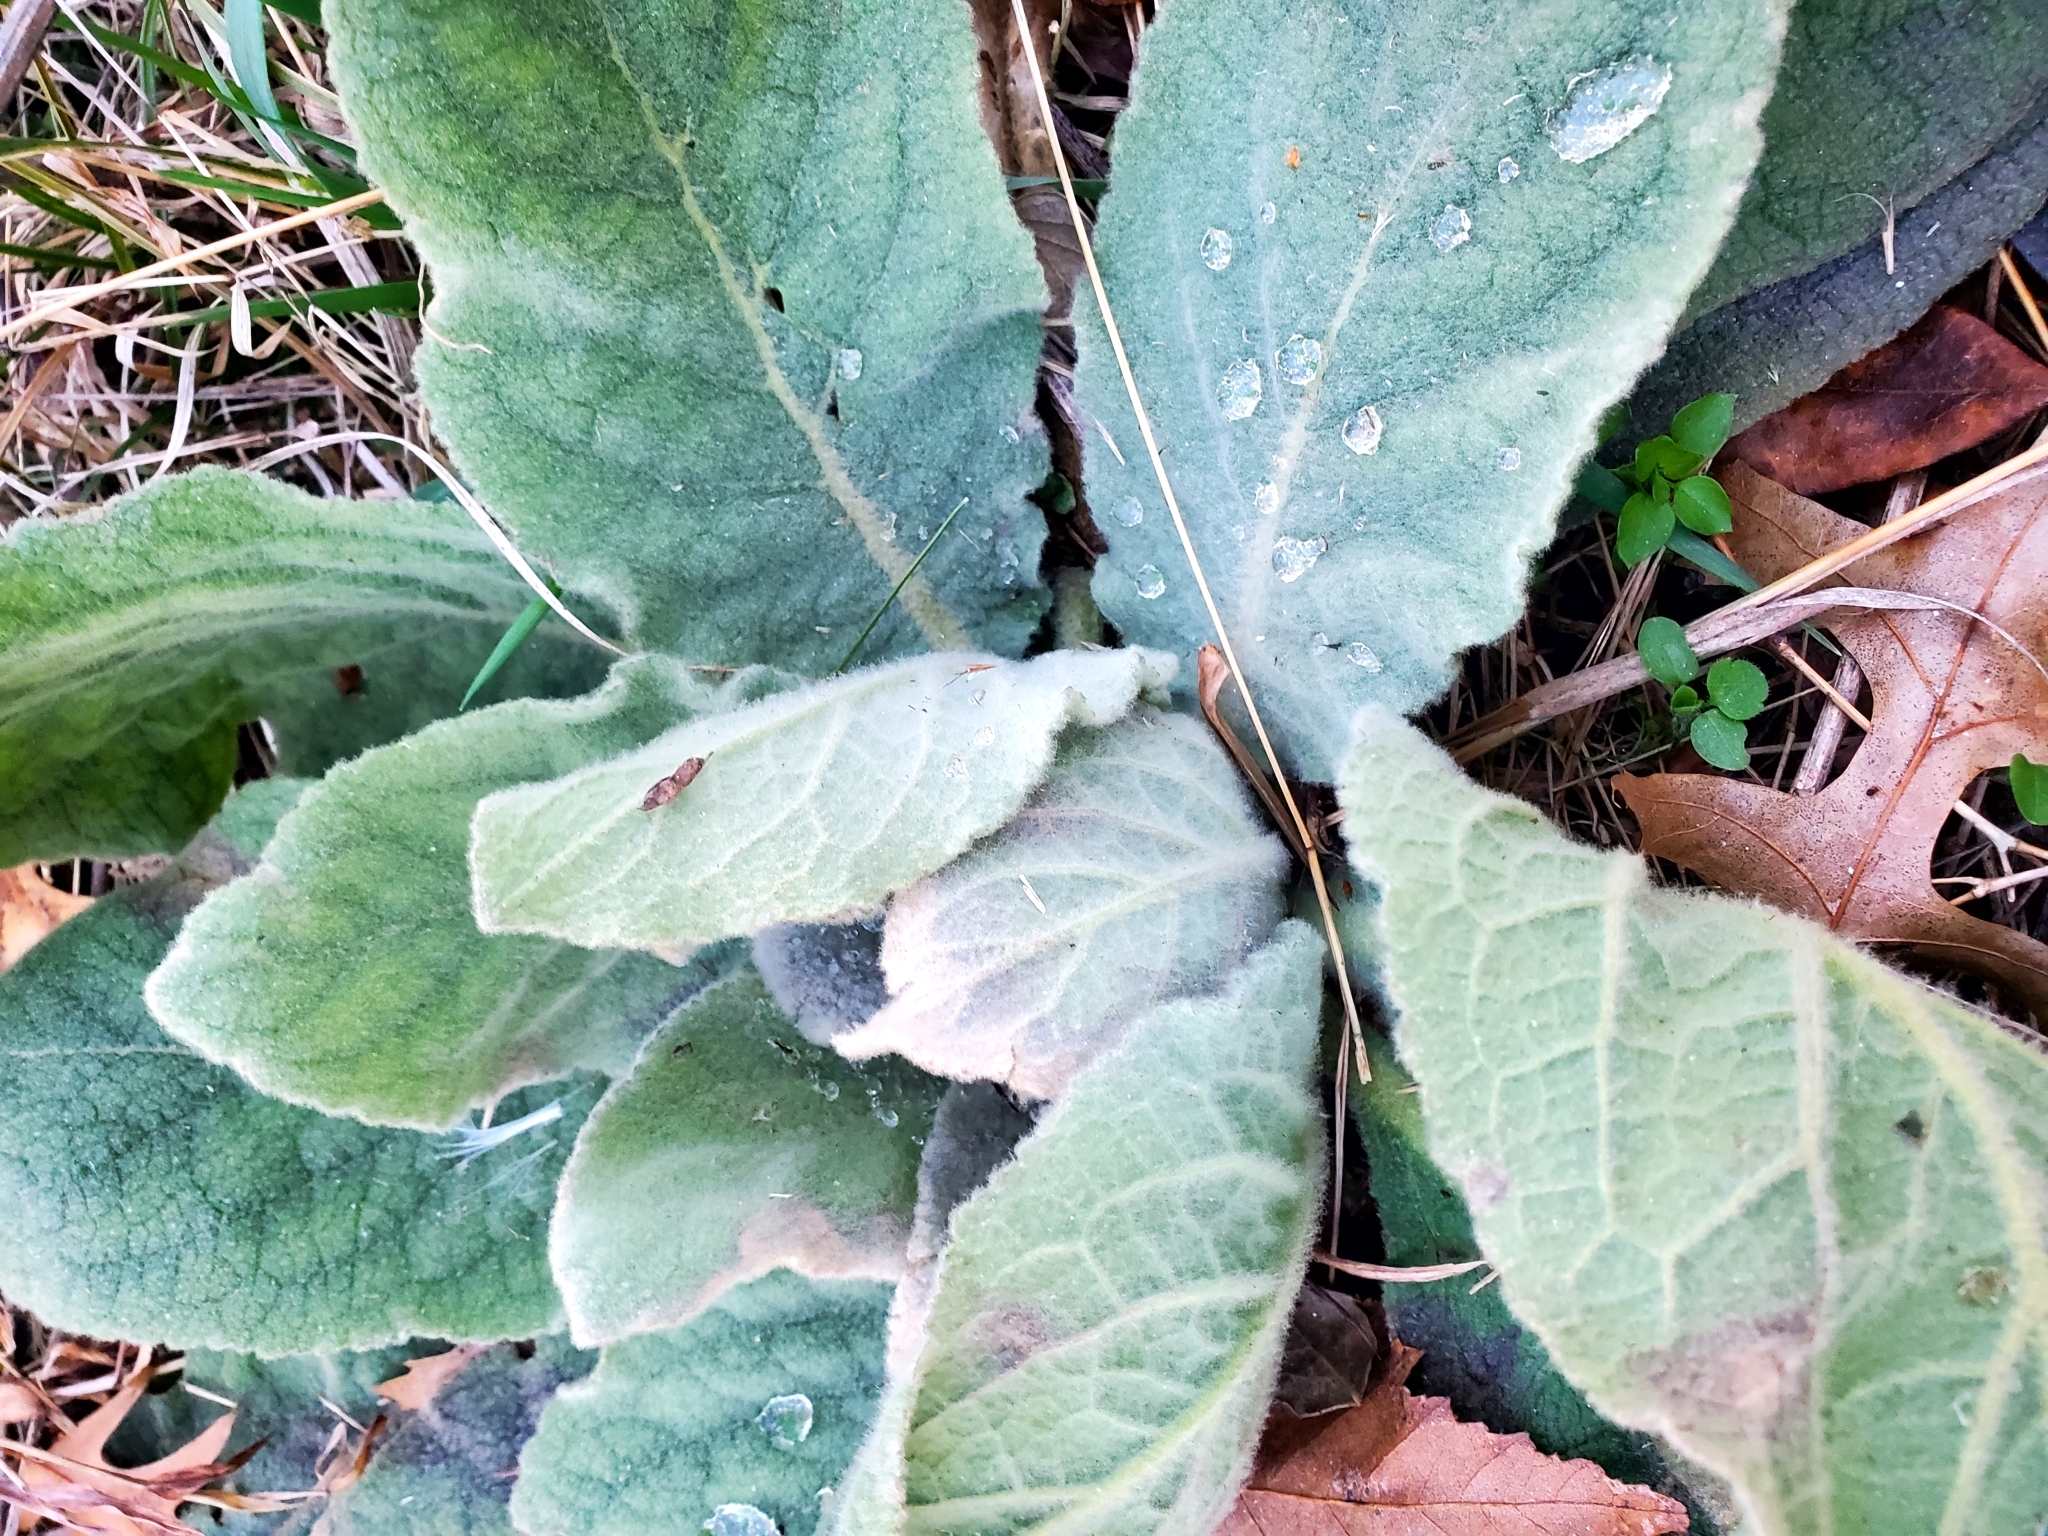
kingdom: Plantae
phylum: Tracheophyta
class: Magnoliopsida
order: Lamiales
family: Scrophulariaceae
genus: Verbascum
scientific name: Verbascum thapsus
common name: Common mullein
